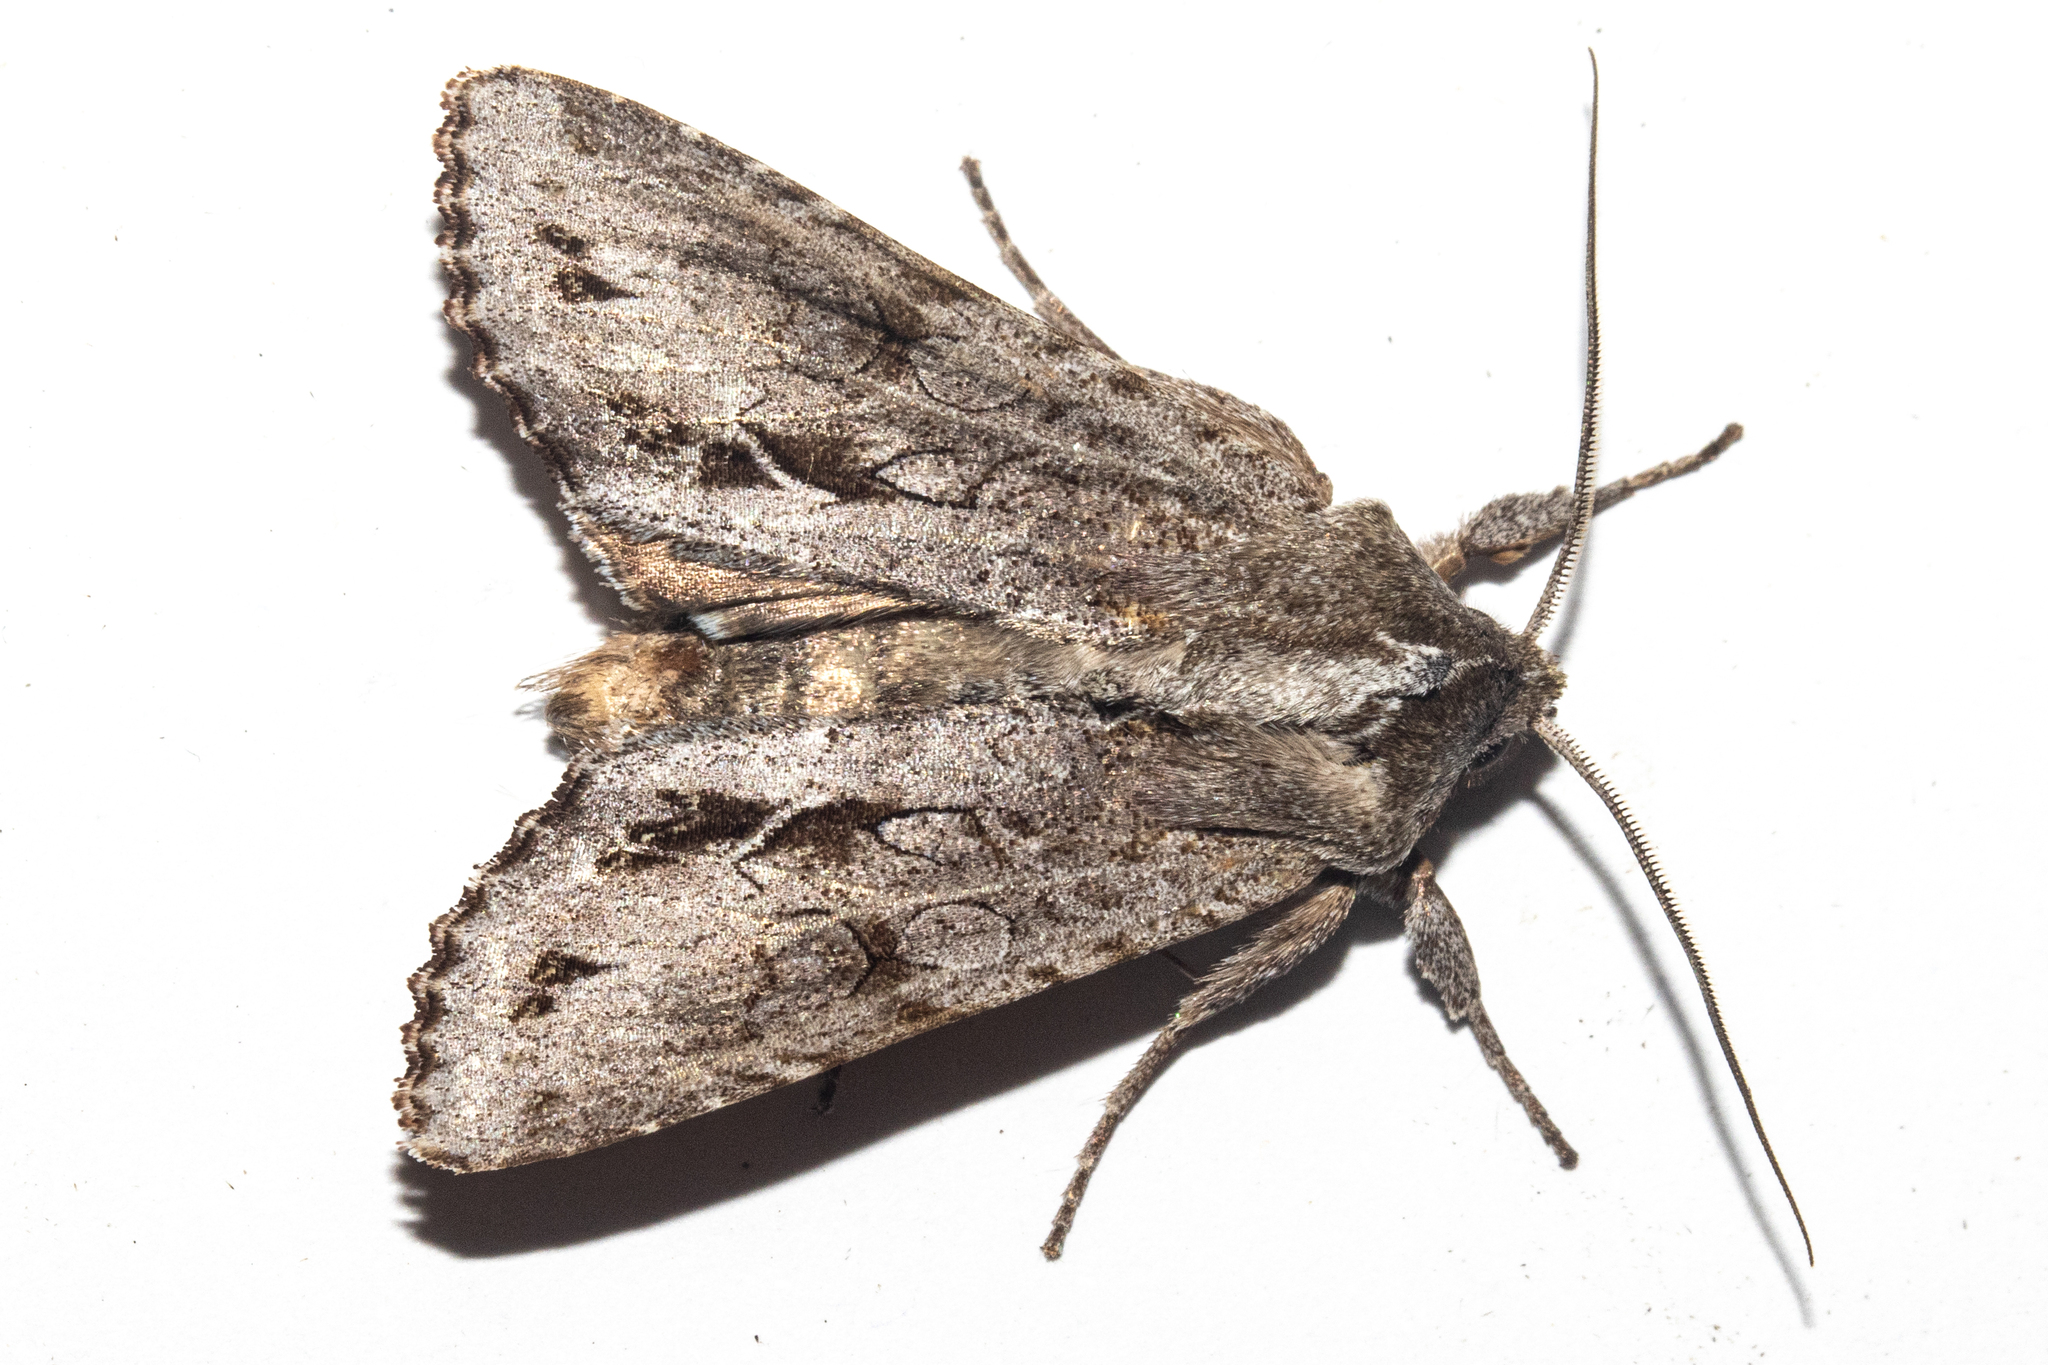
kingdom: Animalia
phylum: Arthropoda
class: Insecta
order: Lepidoptera
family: Noctuidae
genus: Ichneutica
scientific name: Ichneutica
